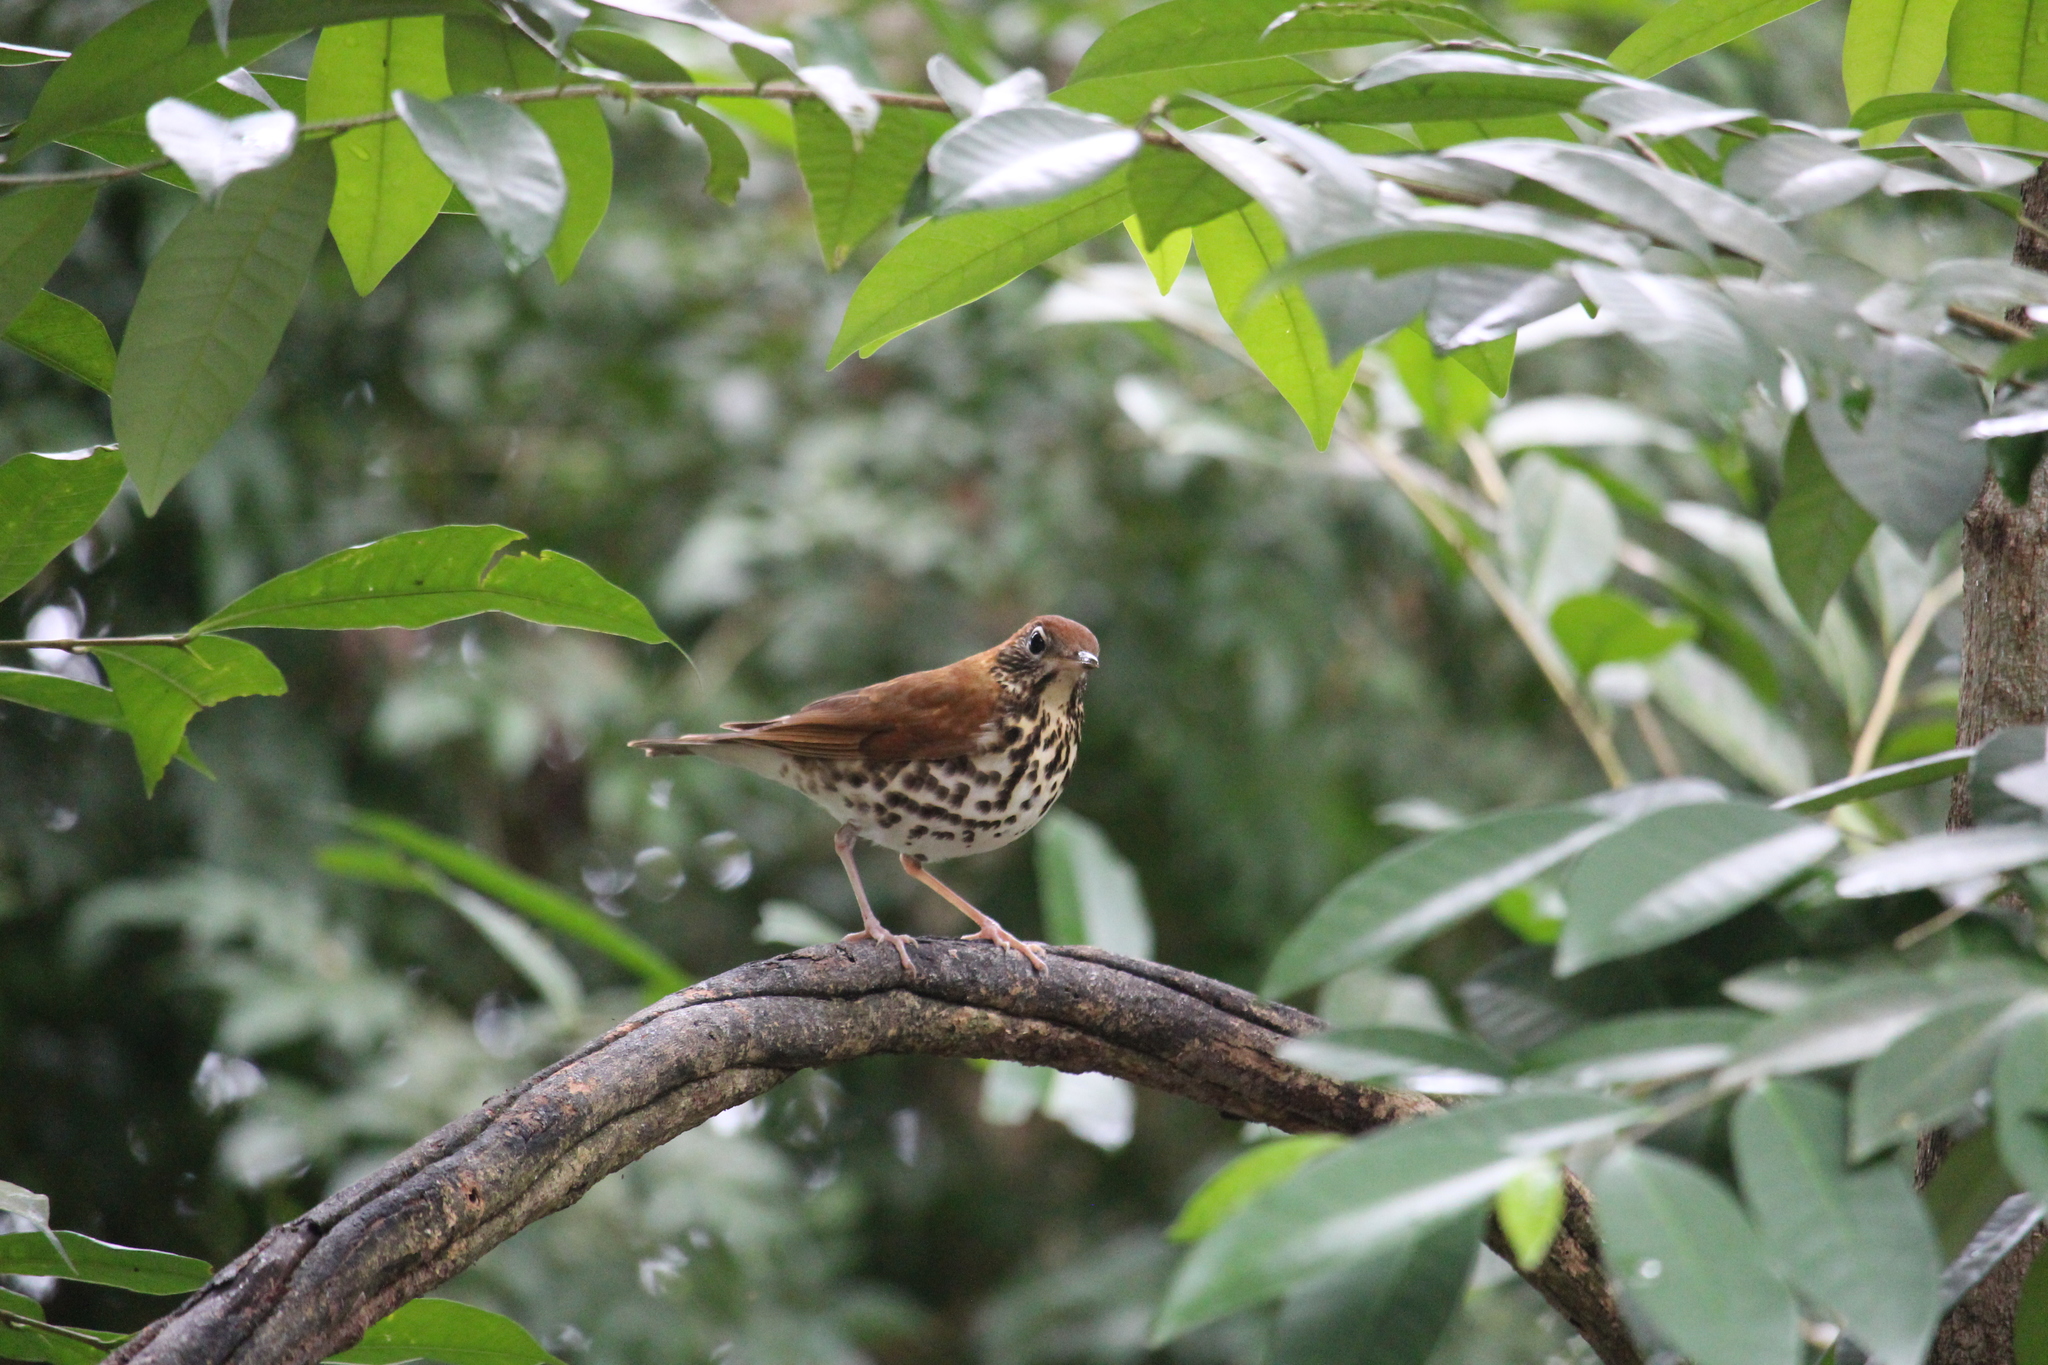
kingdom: Animalia
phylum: Chordata
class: Aves
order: Passeriformes
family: Turdidae
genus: Hylocichla
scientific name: Hylocichla mustelina
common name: Wood thrush
